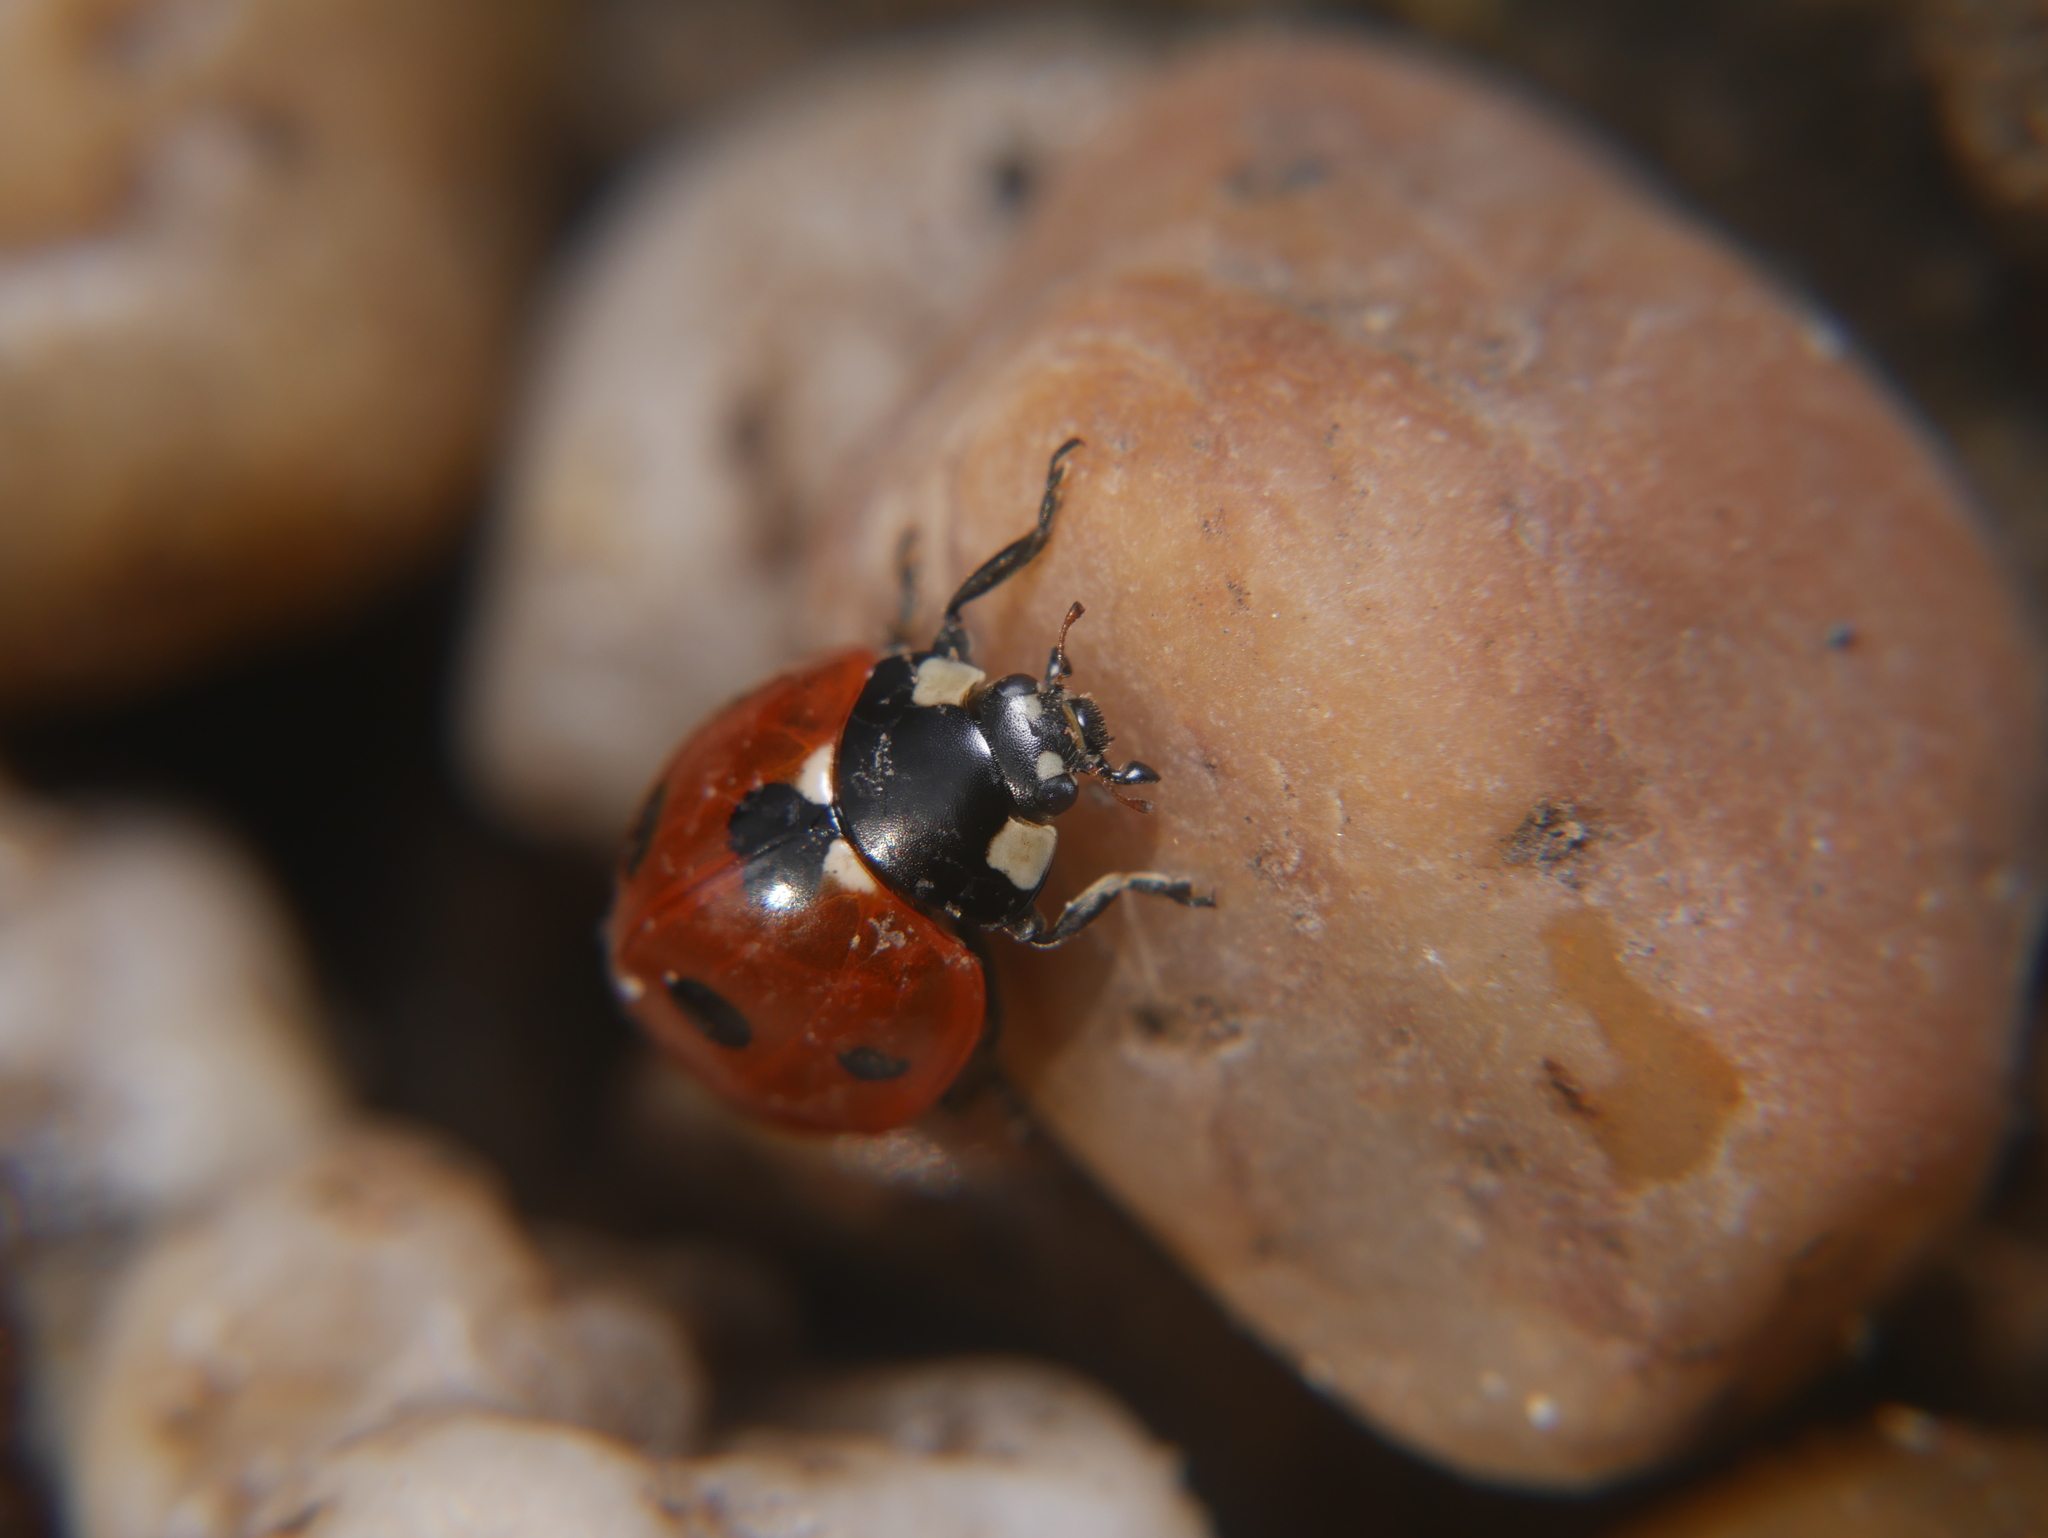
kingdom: Animalia
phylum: Arthropoda
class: Insecta
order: Coleoptera
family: Coccinellidae
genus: Coccinella
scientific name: Coccinella septempunctata
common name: Sevenspotted lady beetle
